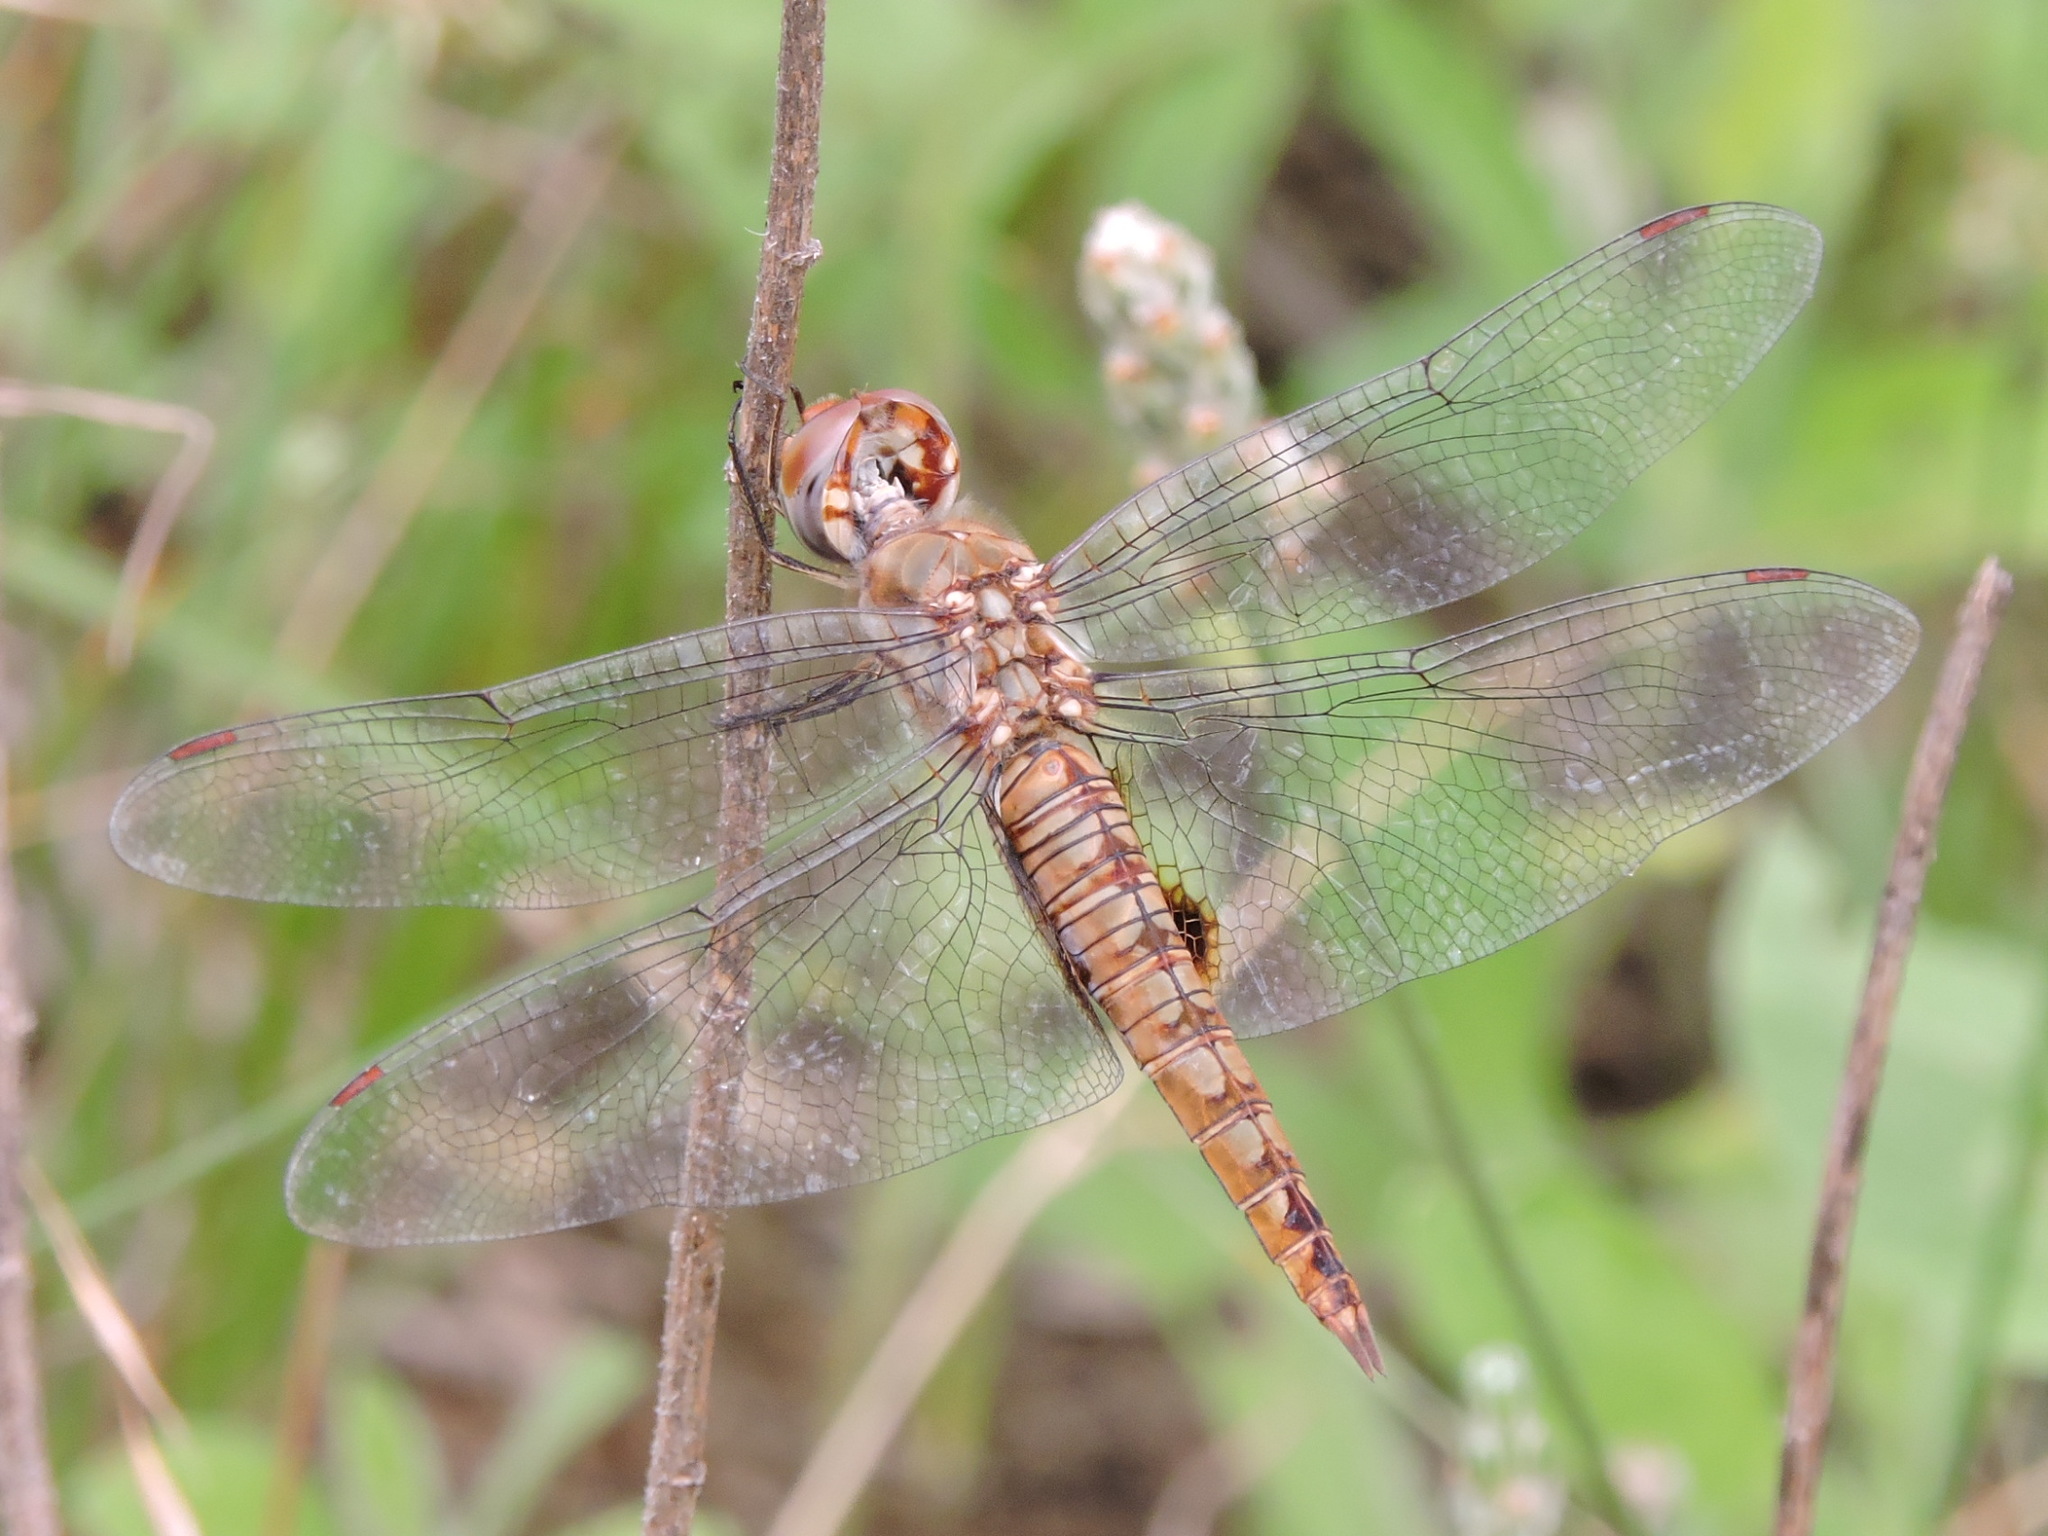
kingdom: Animalia
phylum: Arthropoda
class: Insecta
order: Odonata
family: Libellulidae
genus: Pantala
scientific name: Pantala hymenaea
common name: Spot-winged glider
